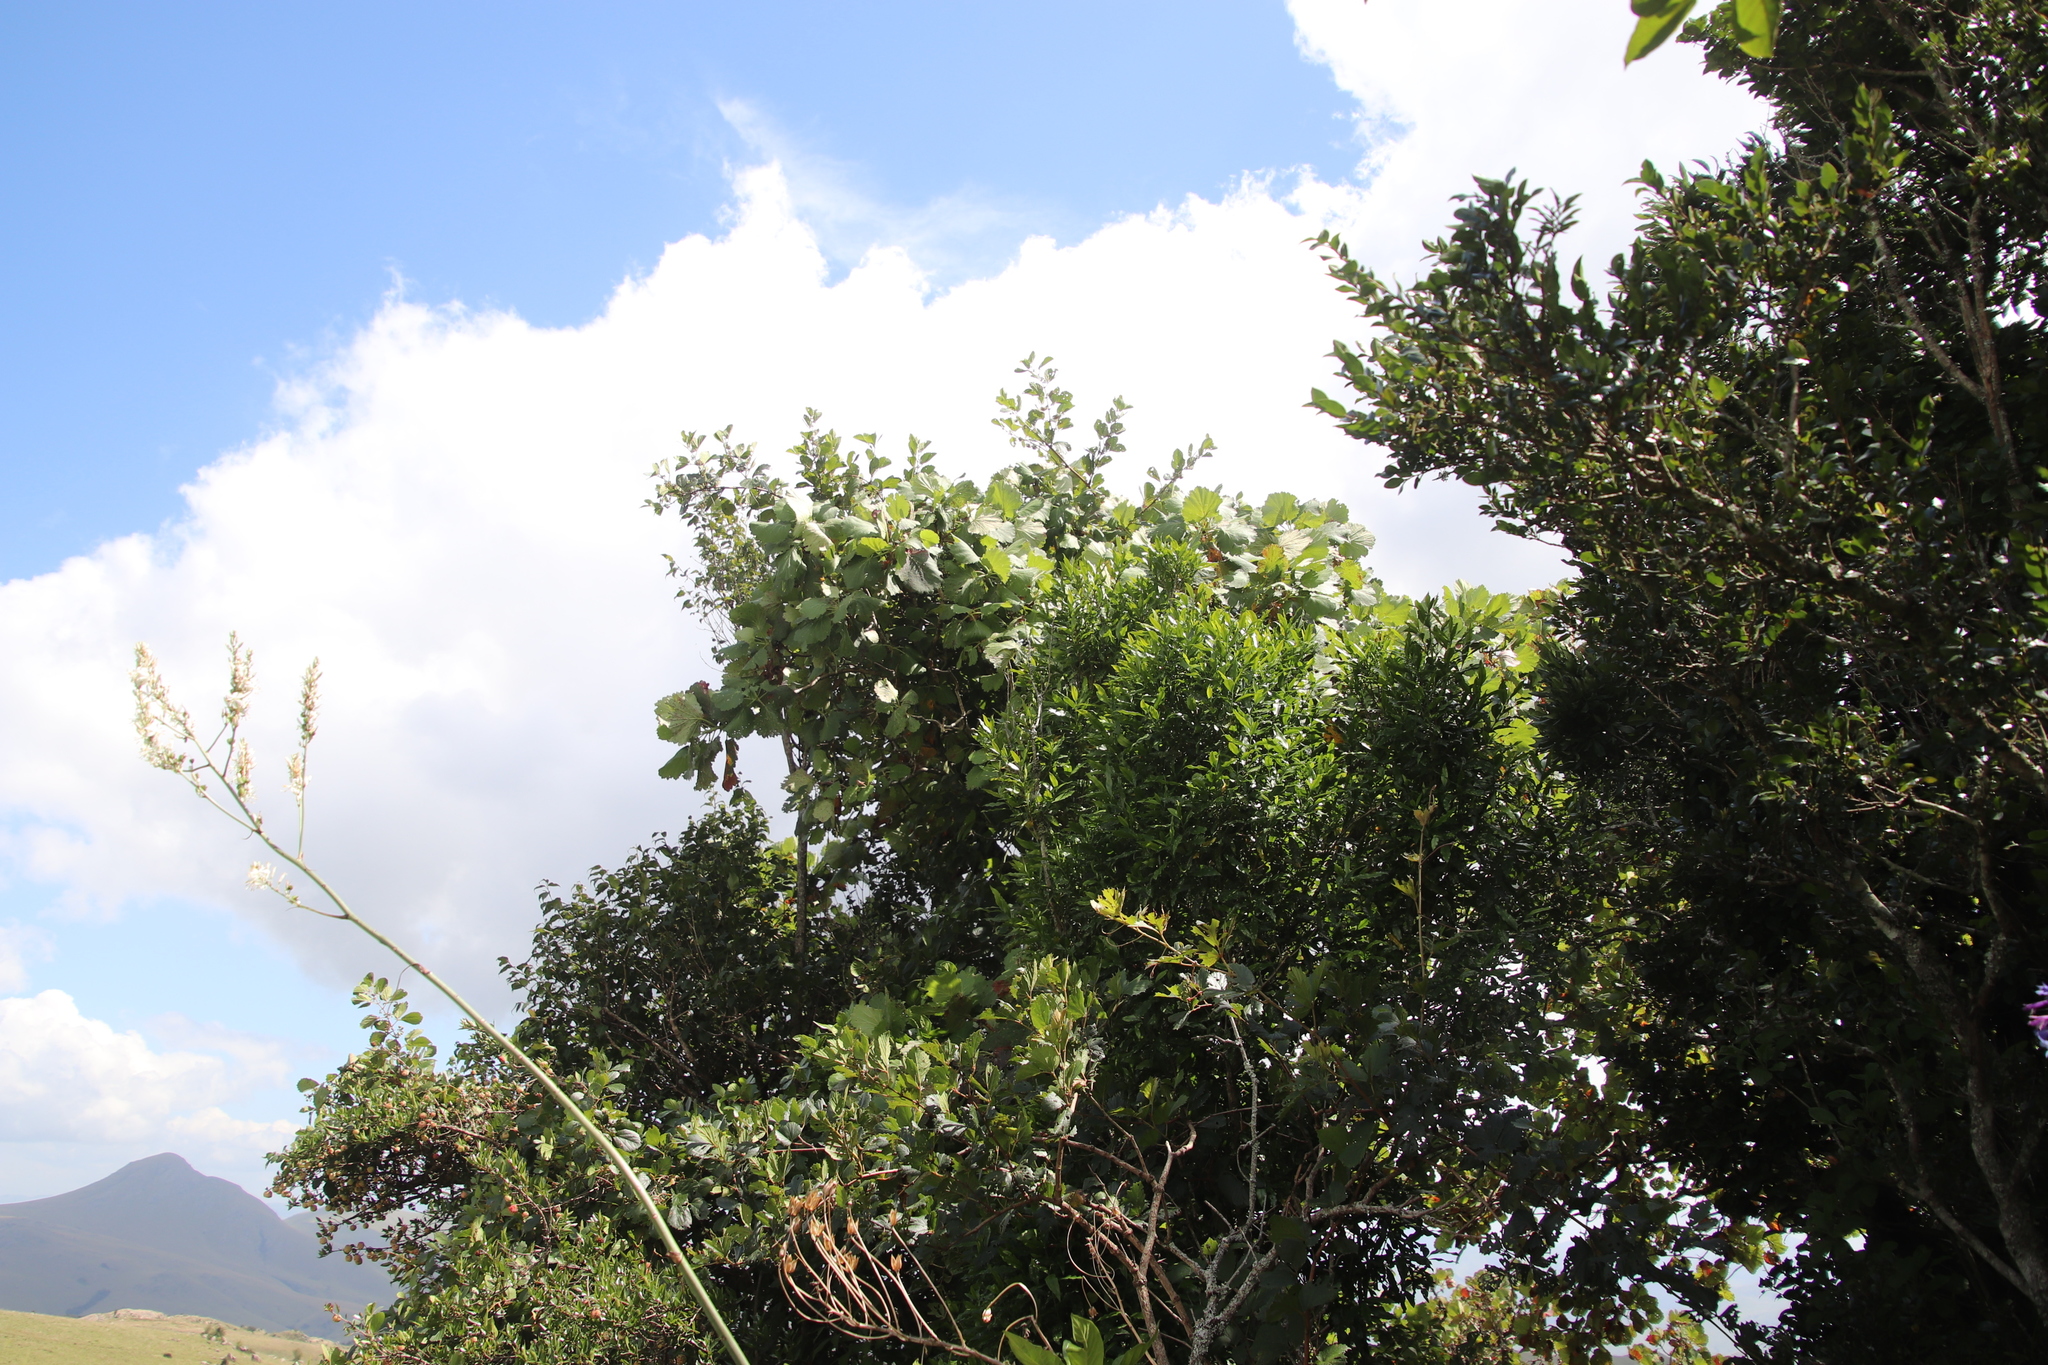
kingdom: Plantae
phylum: Tracheophyta
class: Magnoliopsida
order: Geraniales
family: Francoaceae
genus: Greyia
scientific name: Greyia radlkoferi
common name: Natal bottlebrush
